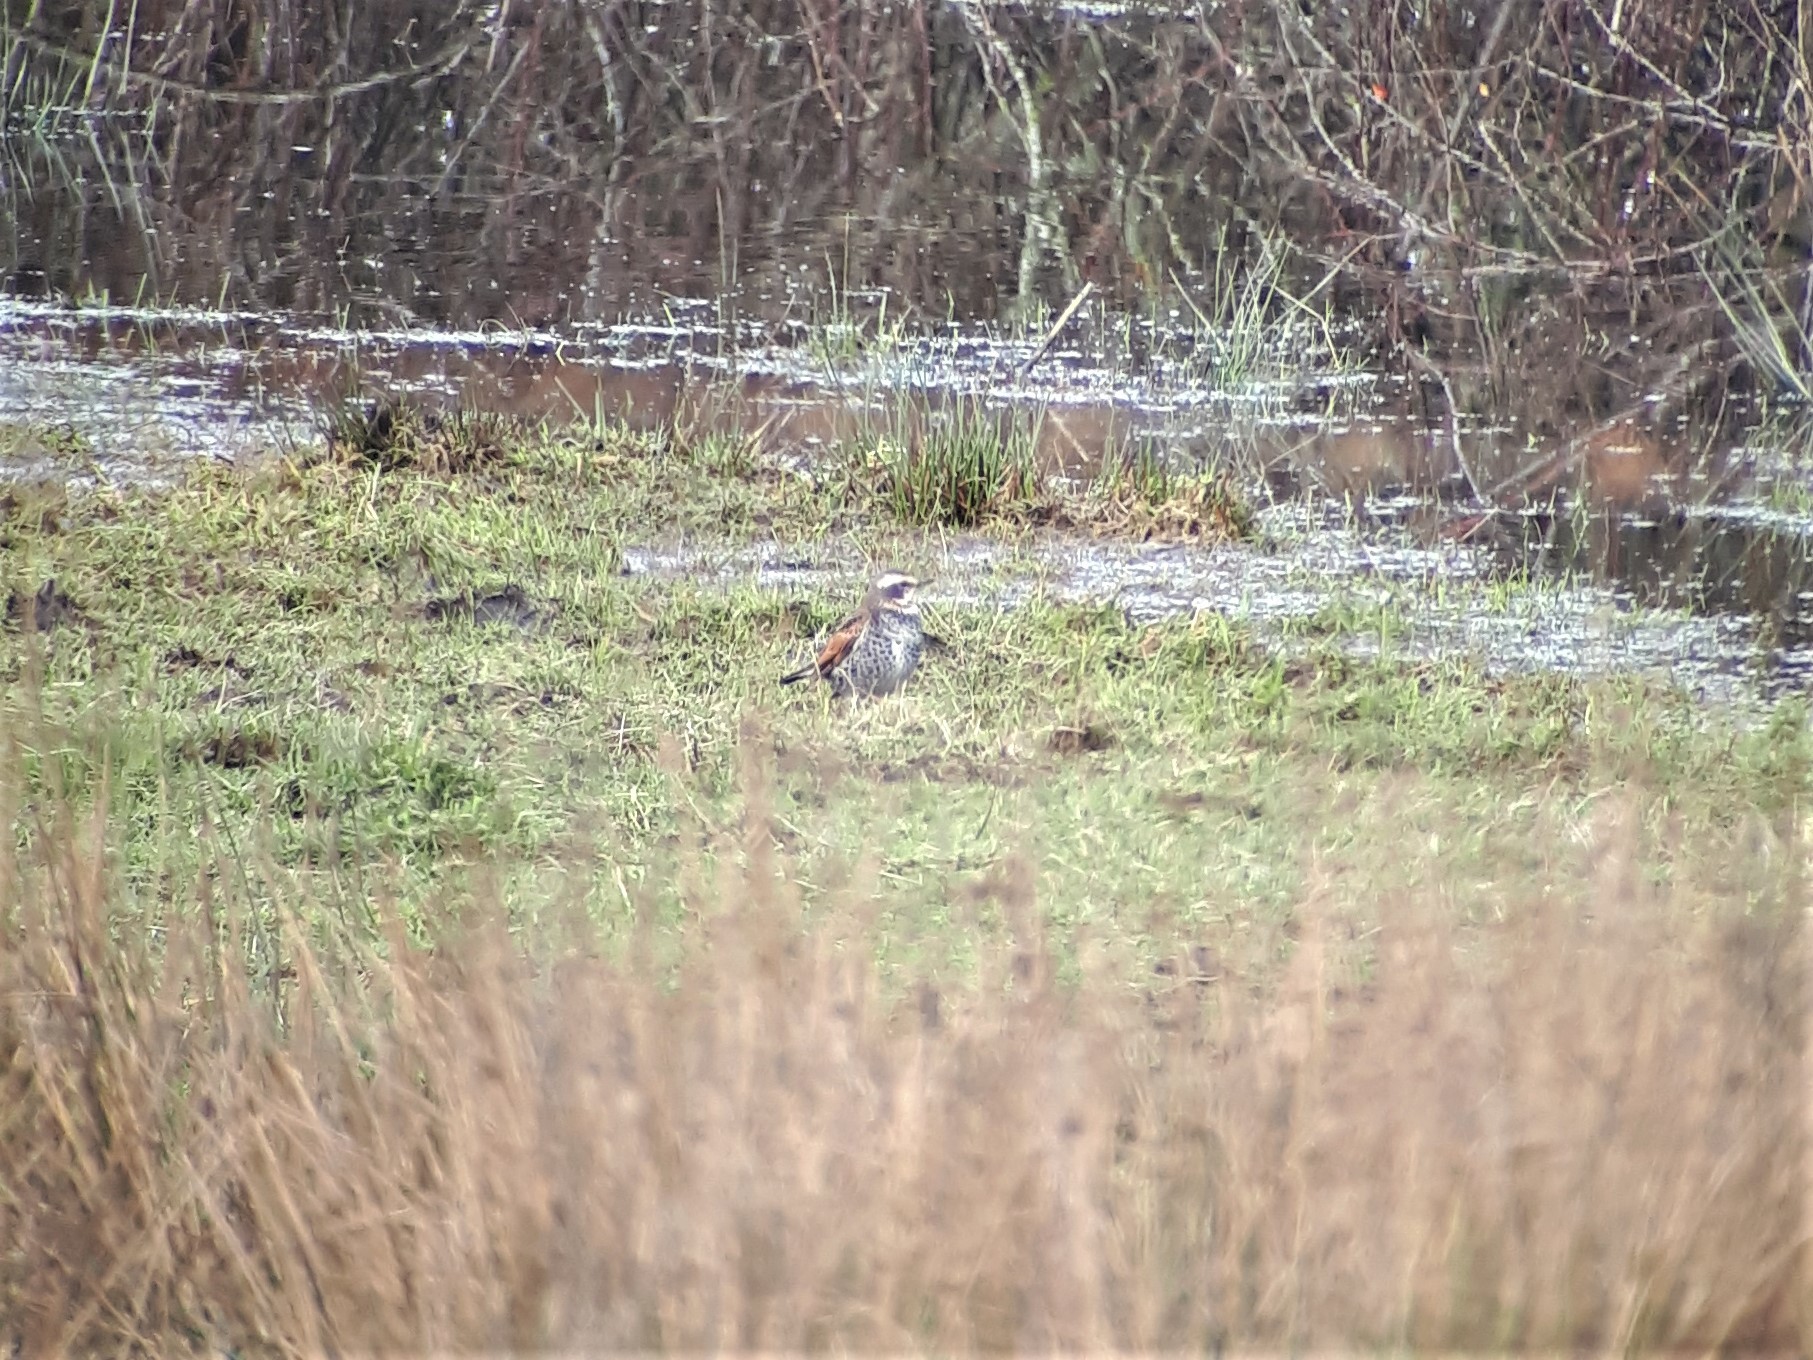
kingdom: Animalia
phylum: Chordata
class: Aves
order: Passeriformes
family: Turdidae
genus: Turdus
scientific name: Turdus eunomus
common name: Dusky thrush
